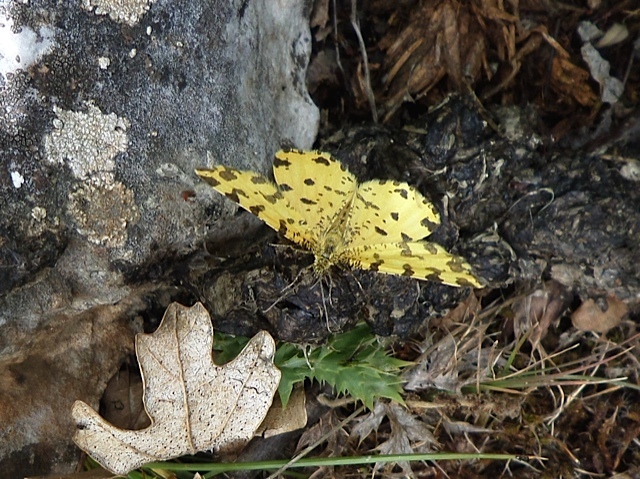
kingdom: Animalia
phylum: Arthropoda
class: Insecta
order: Lepidoptera
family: Geometridae
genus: Pseudopanthera
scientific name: Pseudopanthera macularia
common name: Speckled yellow
